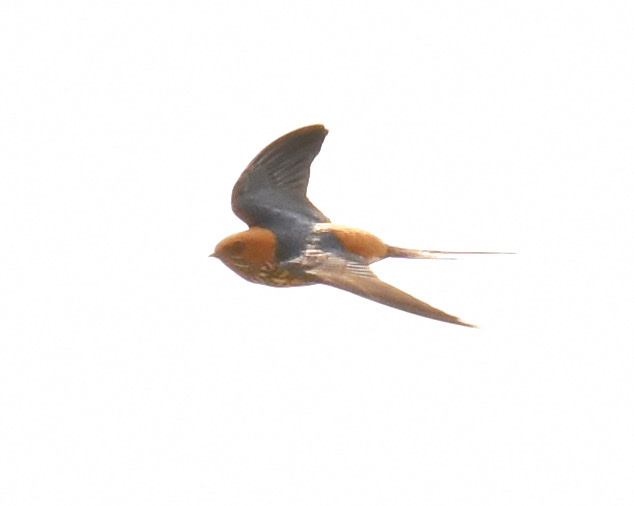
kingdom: Animalia
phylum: Chordata
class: Aves
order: Passeriformes
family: Hirundinidae
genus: Cecropis
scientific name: Cecropis abyssinica
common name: Lesser striped-swallow
